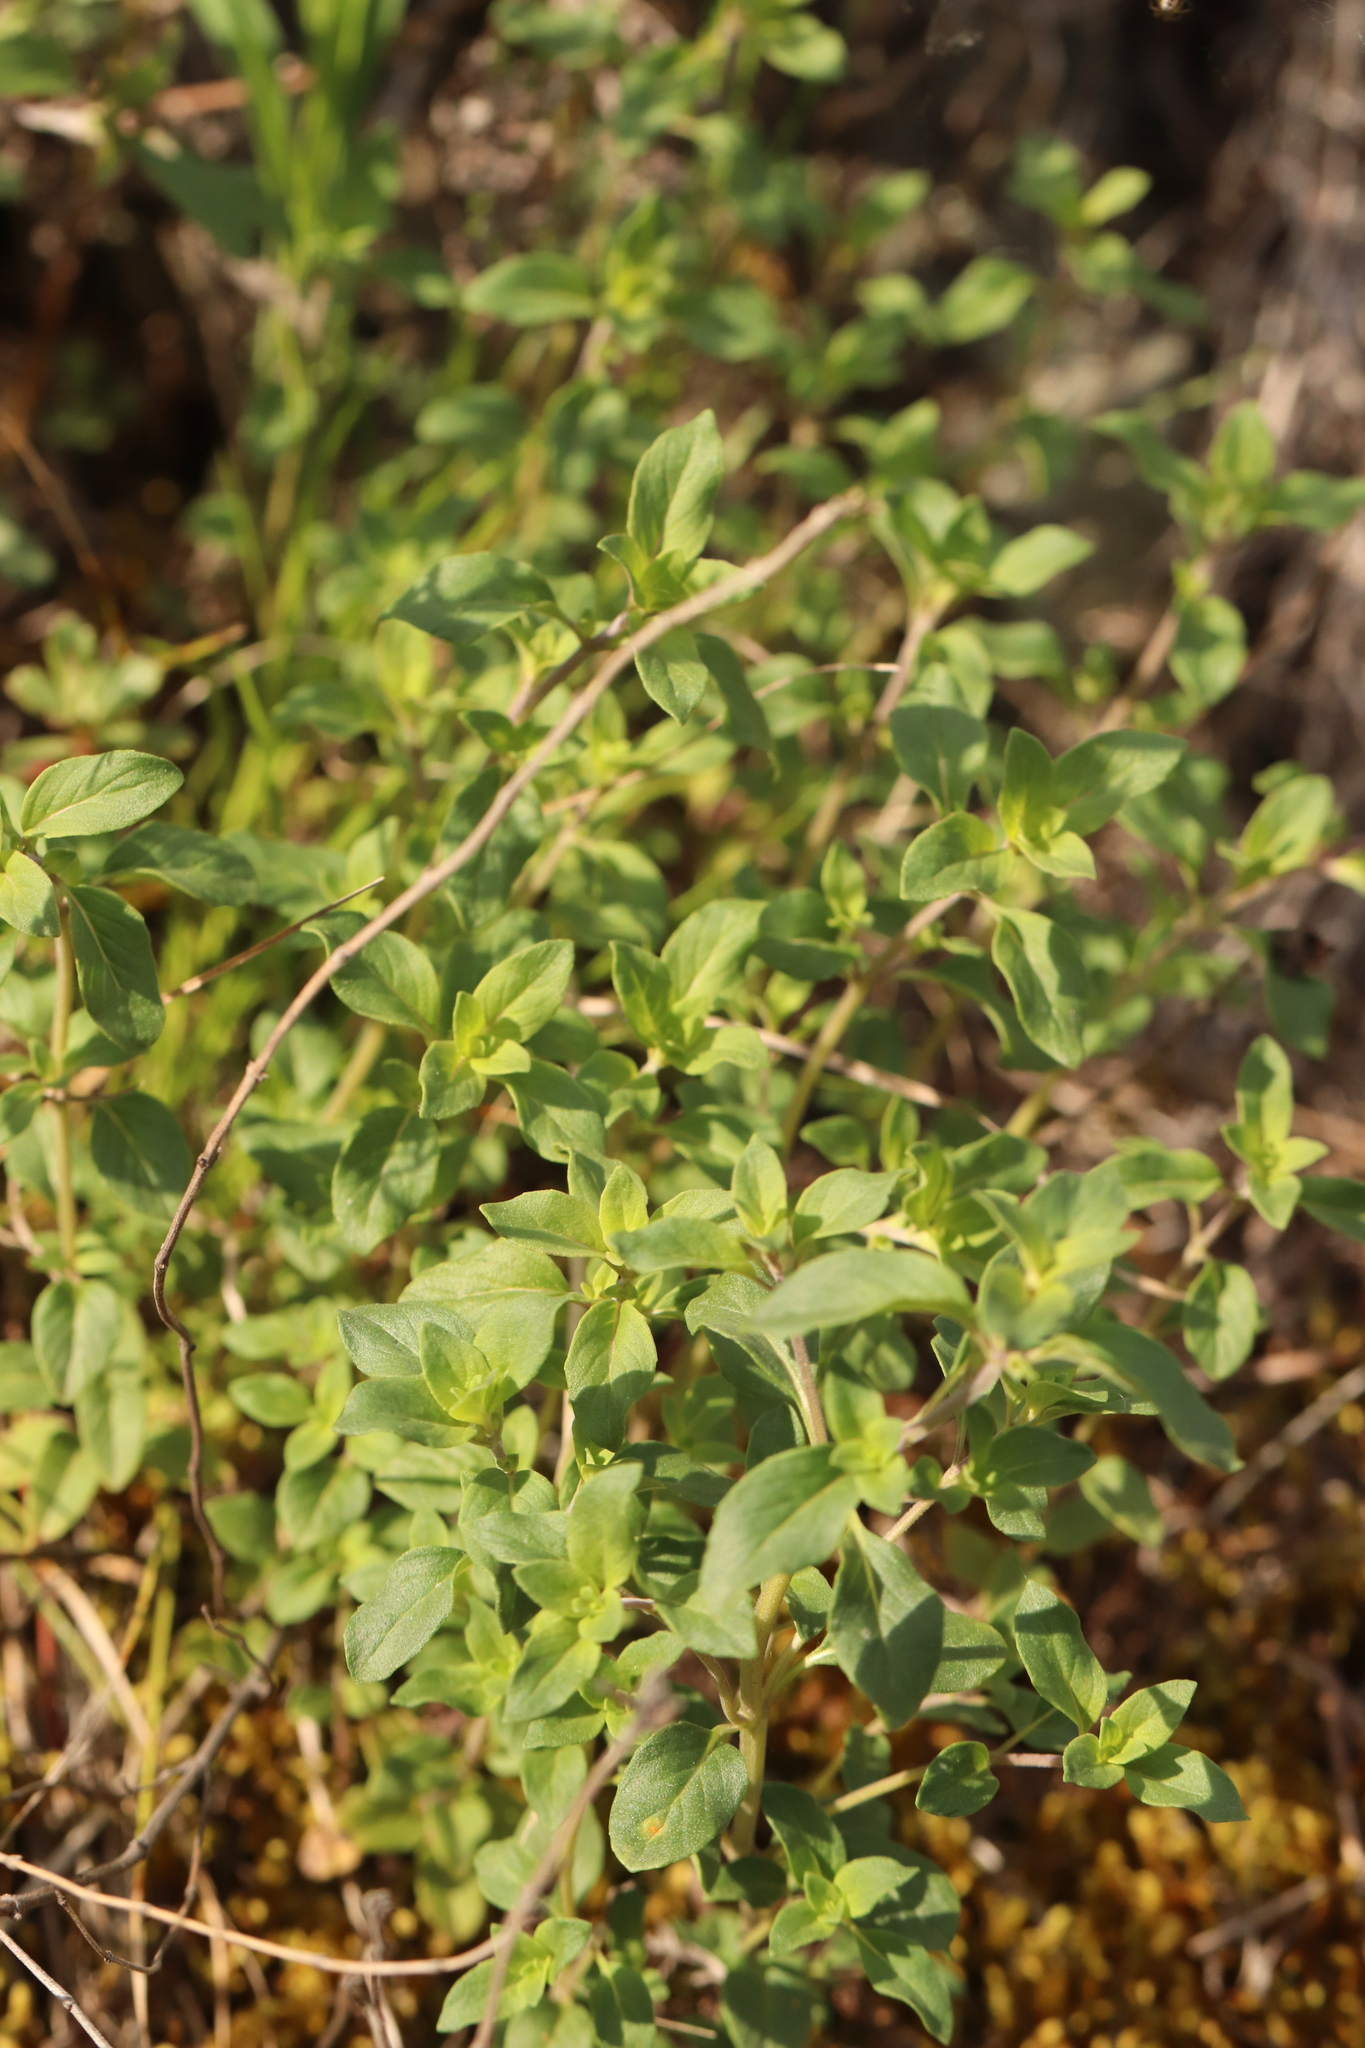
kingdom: Plantae
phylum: Tracheophyta
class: Magnoliopsida
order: Lamiales
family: Lamiaceae
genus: Ziziphora
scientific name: Ziziphora clinopodioides
